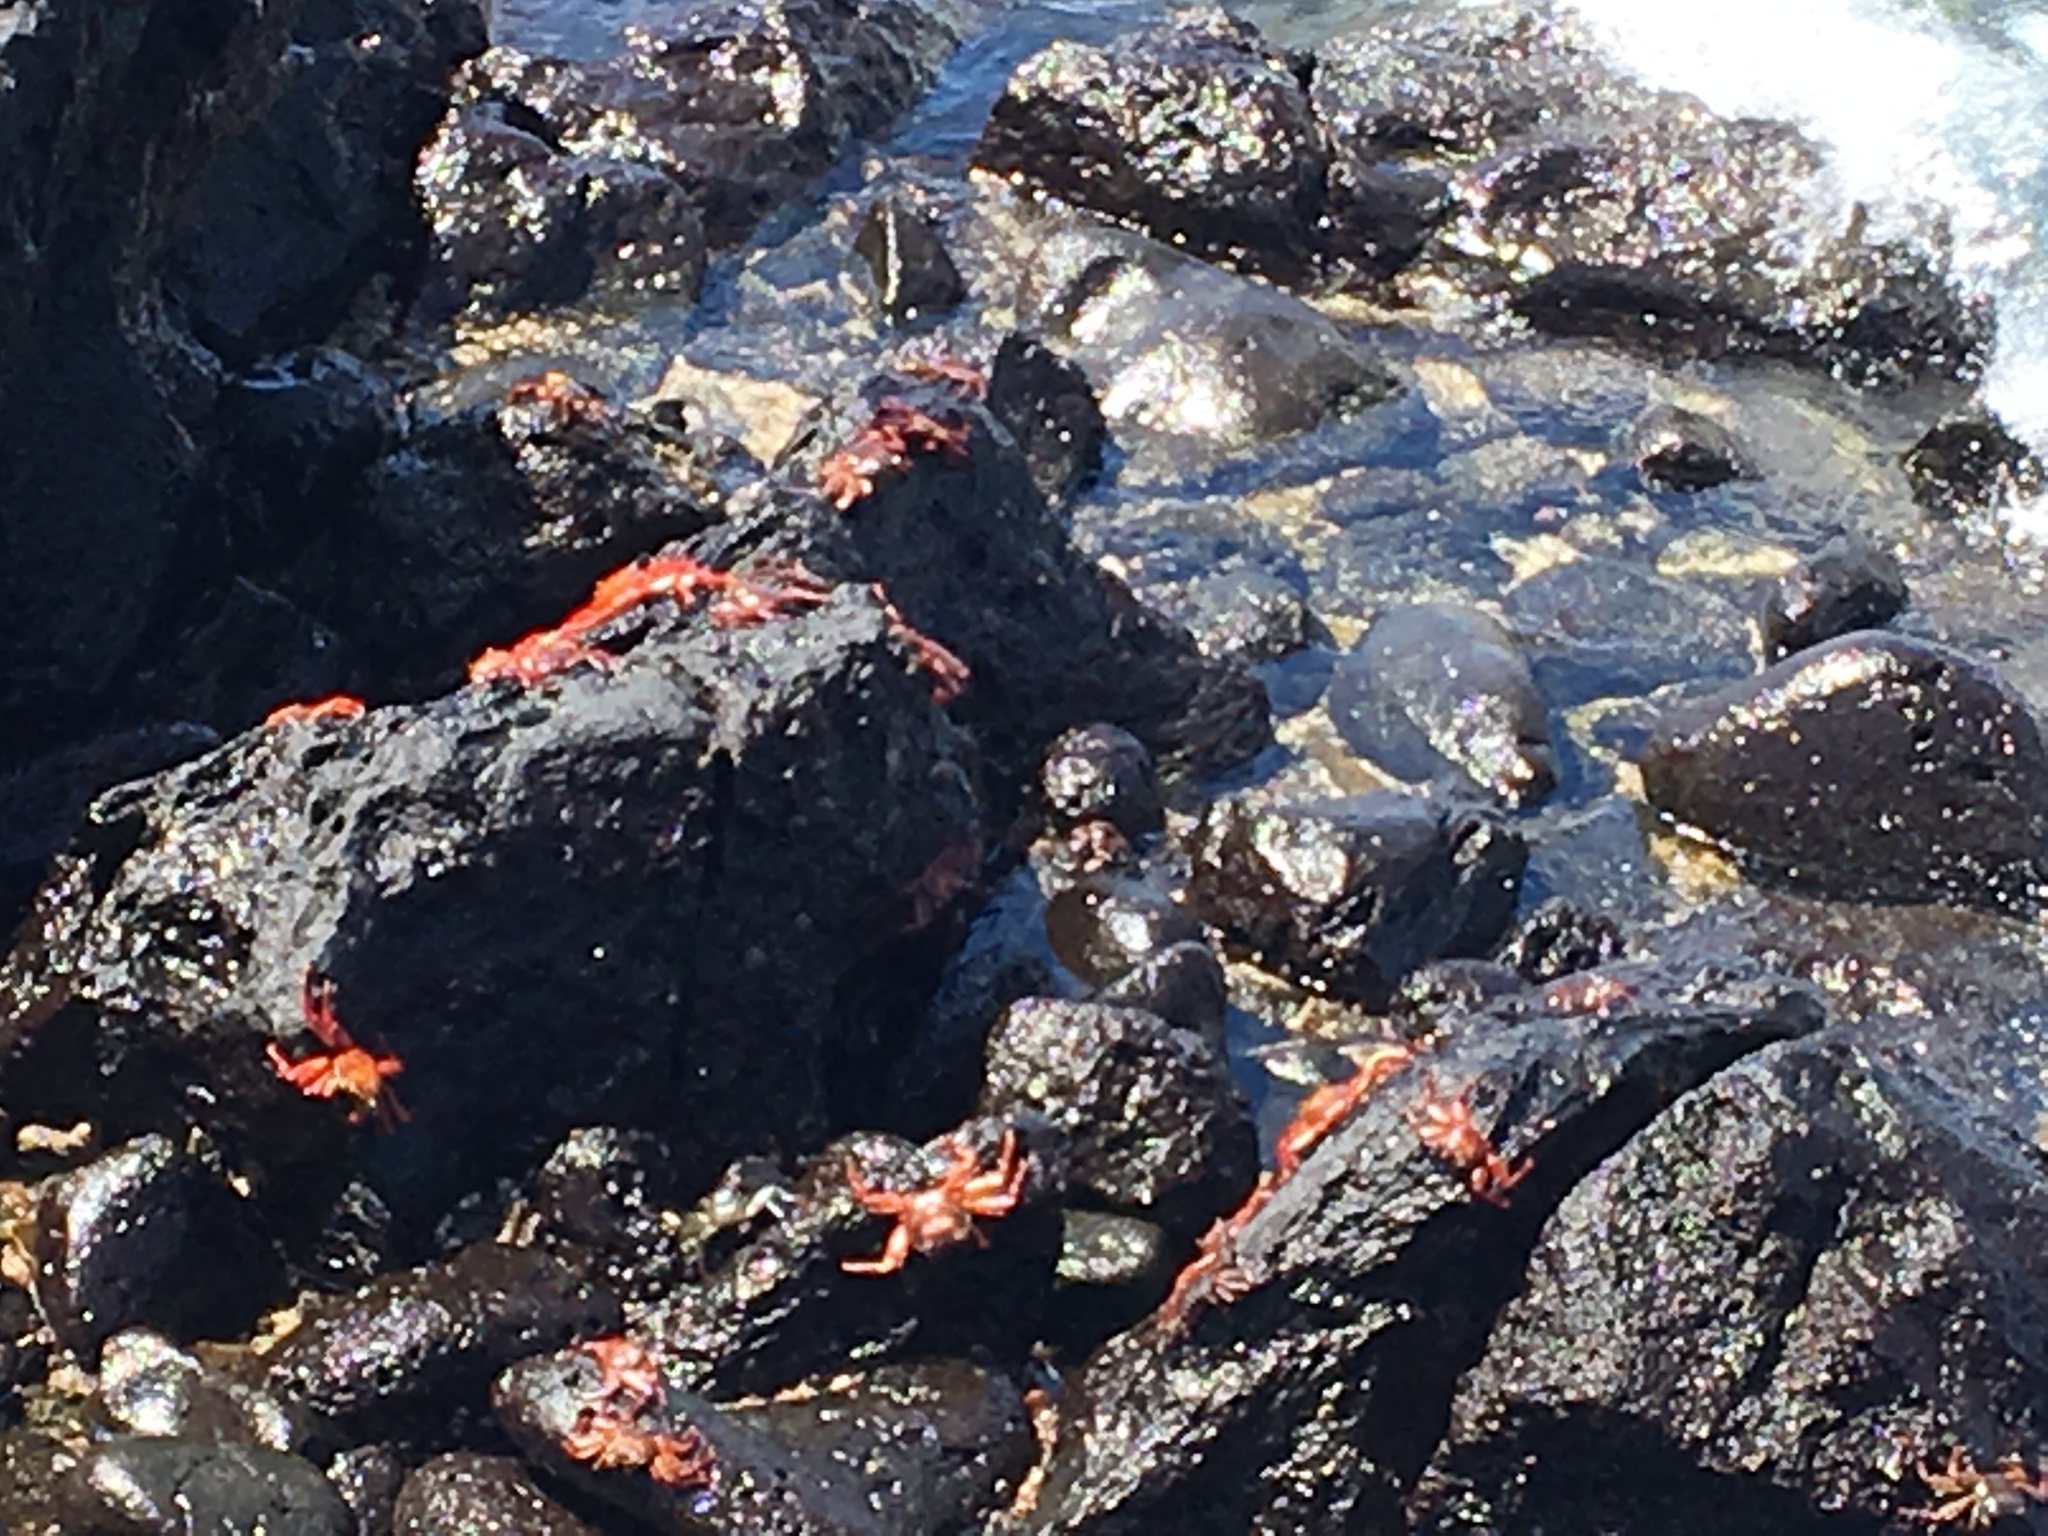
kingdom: Animalia
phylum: Arthropoda
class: Malacostraca
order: Decapoda
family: Grapsidae
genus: Grapsus
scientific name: Grapsus grapsus
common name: Sally lightfoot
